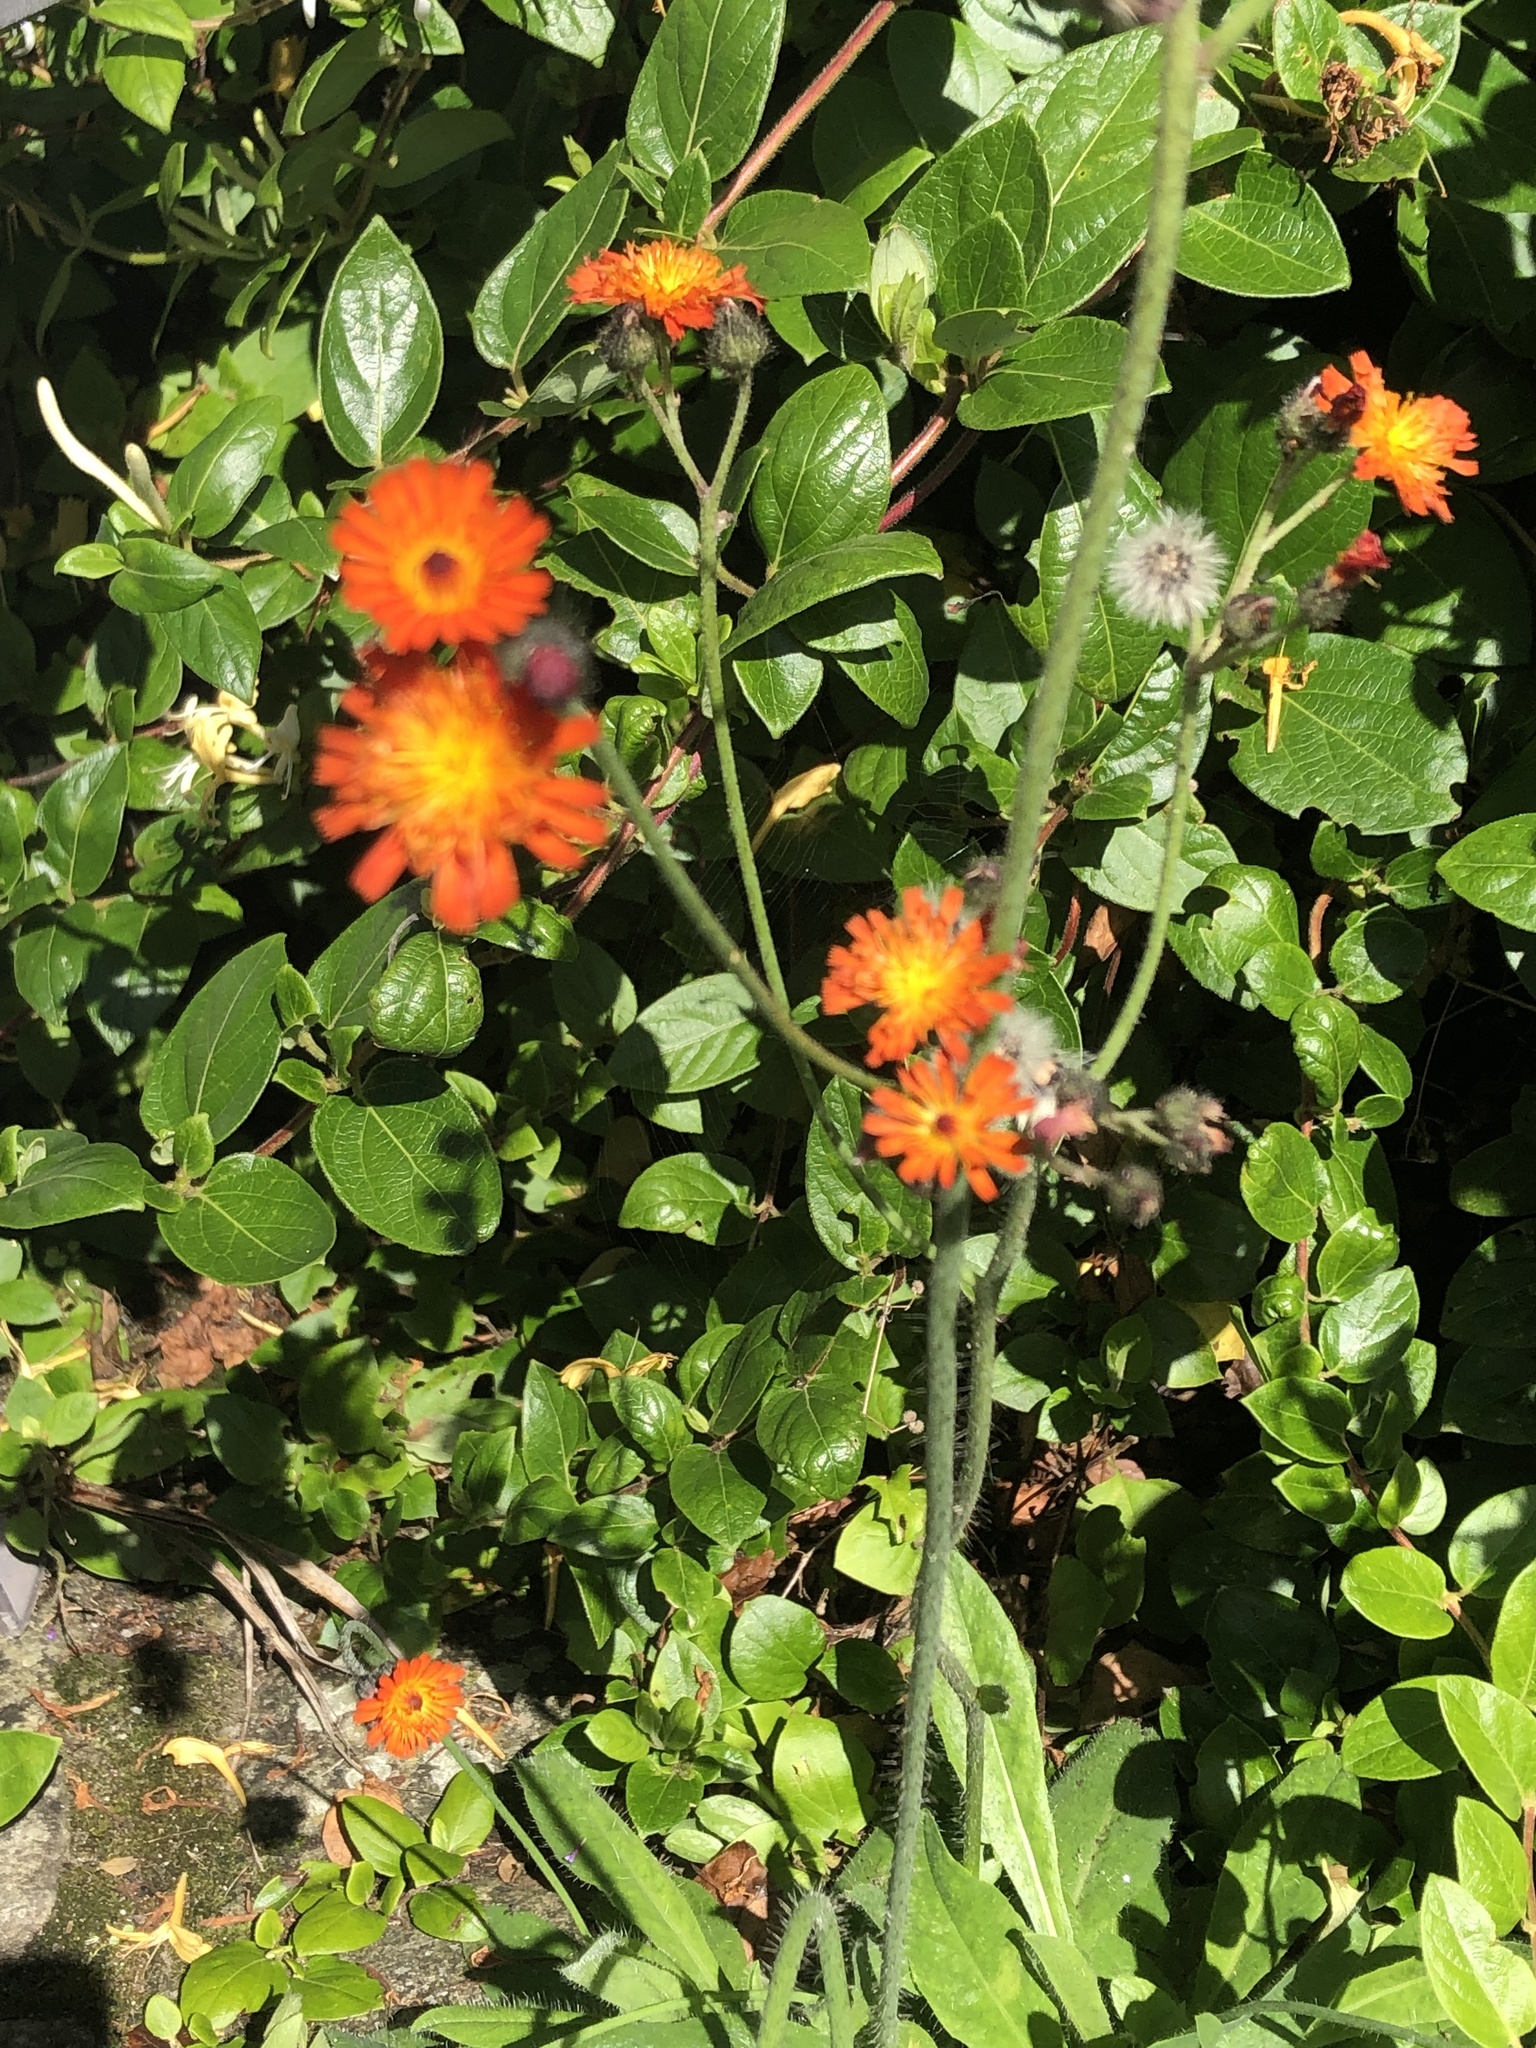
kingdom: Plantae
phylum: Tracheophyta
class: Magnoliopsida
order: Asterales
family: Asteraceae
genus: Pilosella
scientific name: Pilosella aurantiaca
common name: Fox-and-cubs
